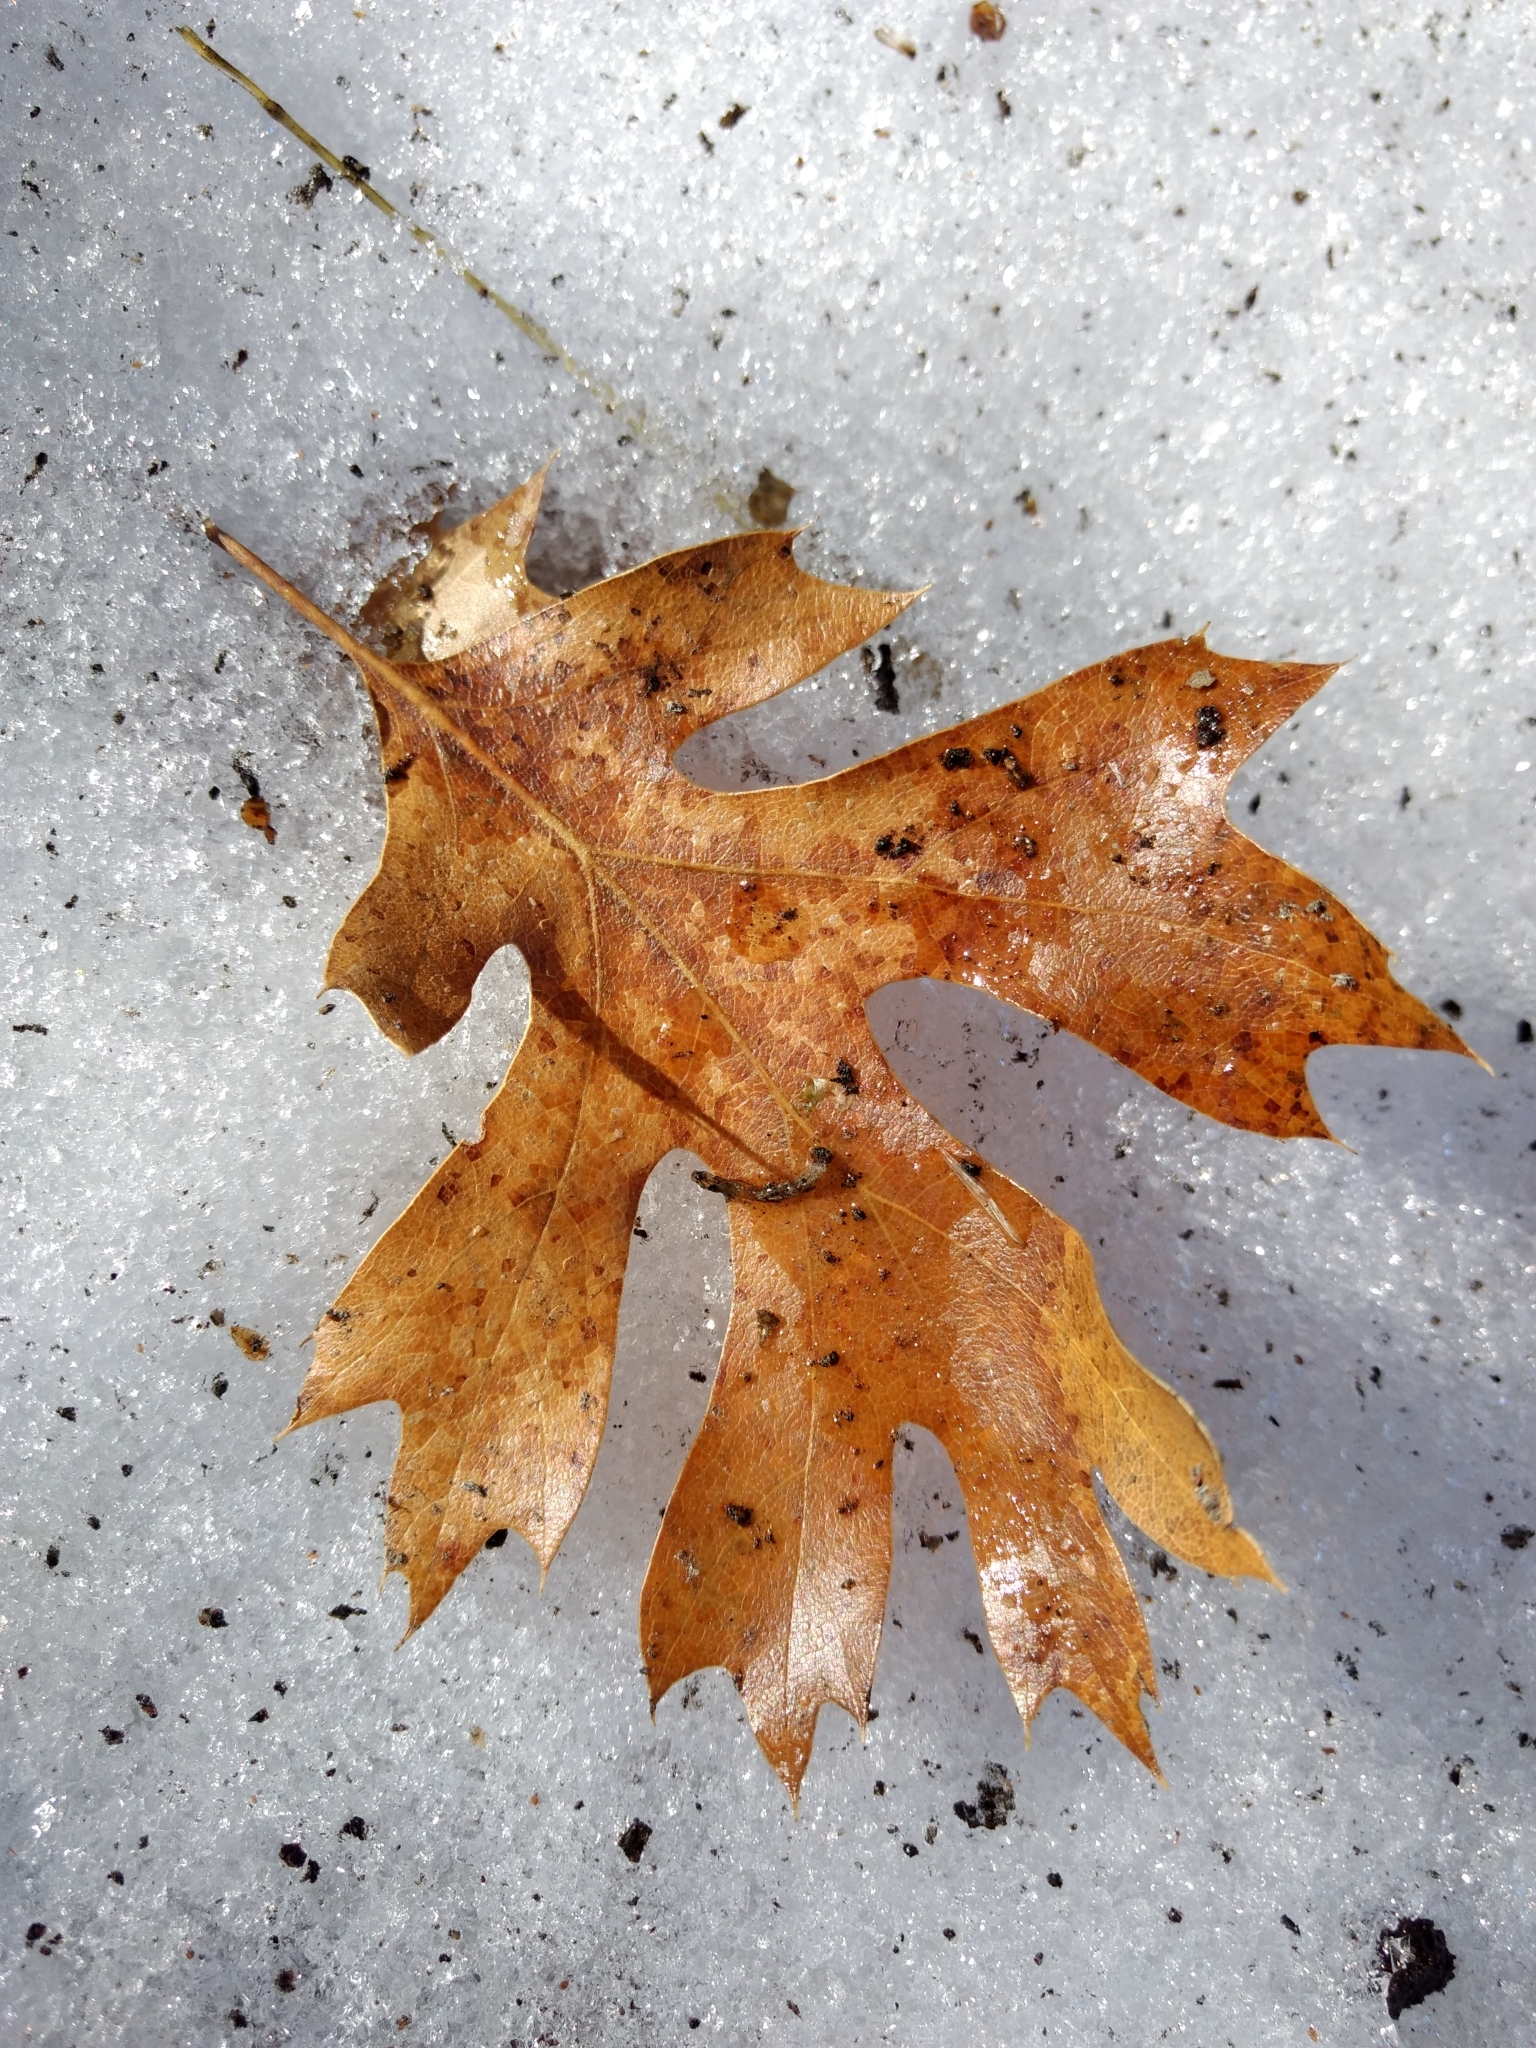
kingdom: Plantae
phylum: Tracheophyta
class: Magnoliopsida
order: Fagales
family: Fagaceae
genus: Quercus
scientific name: Quercus kelloggii
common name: California black oak
